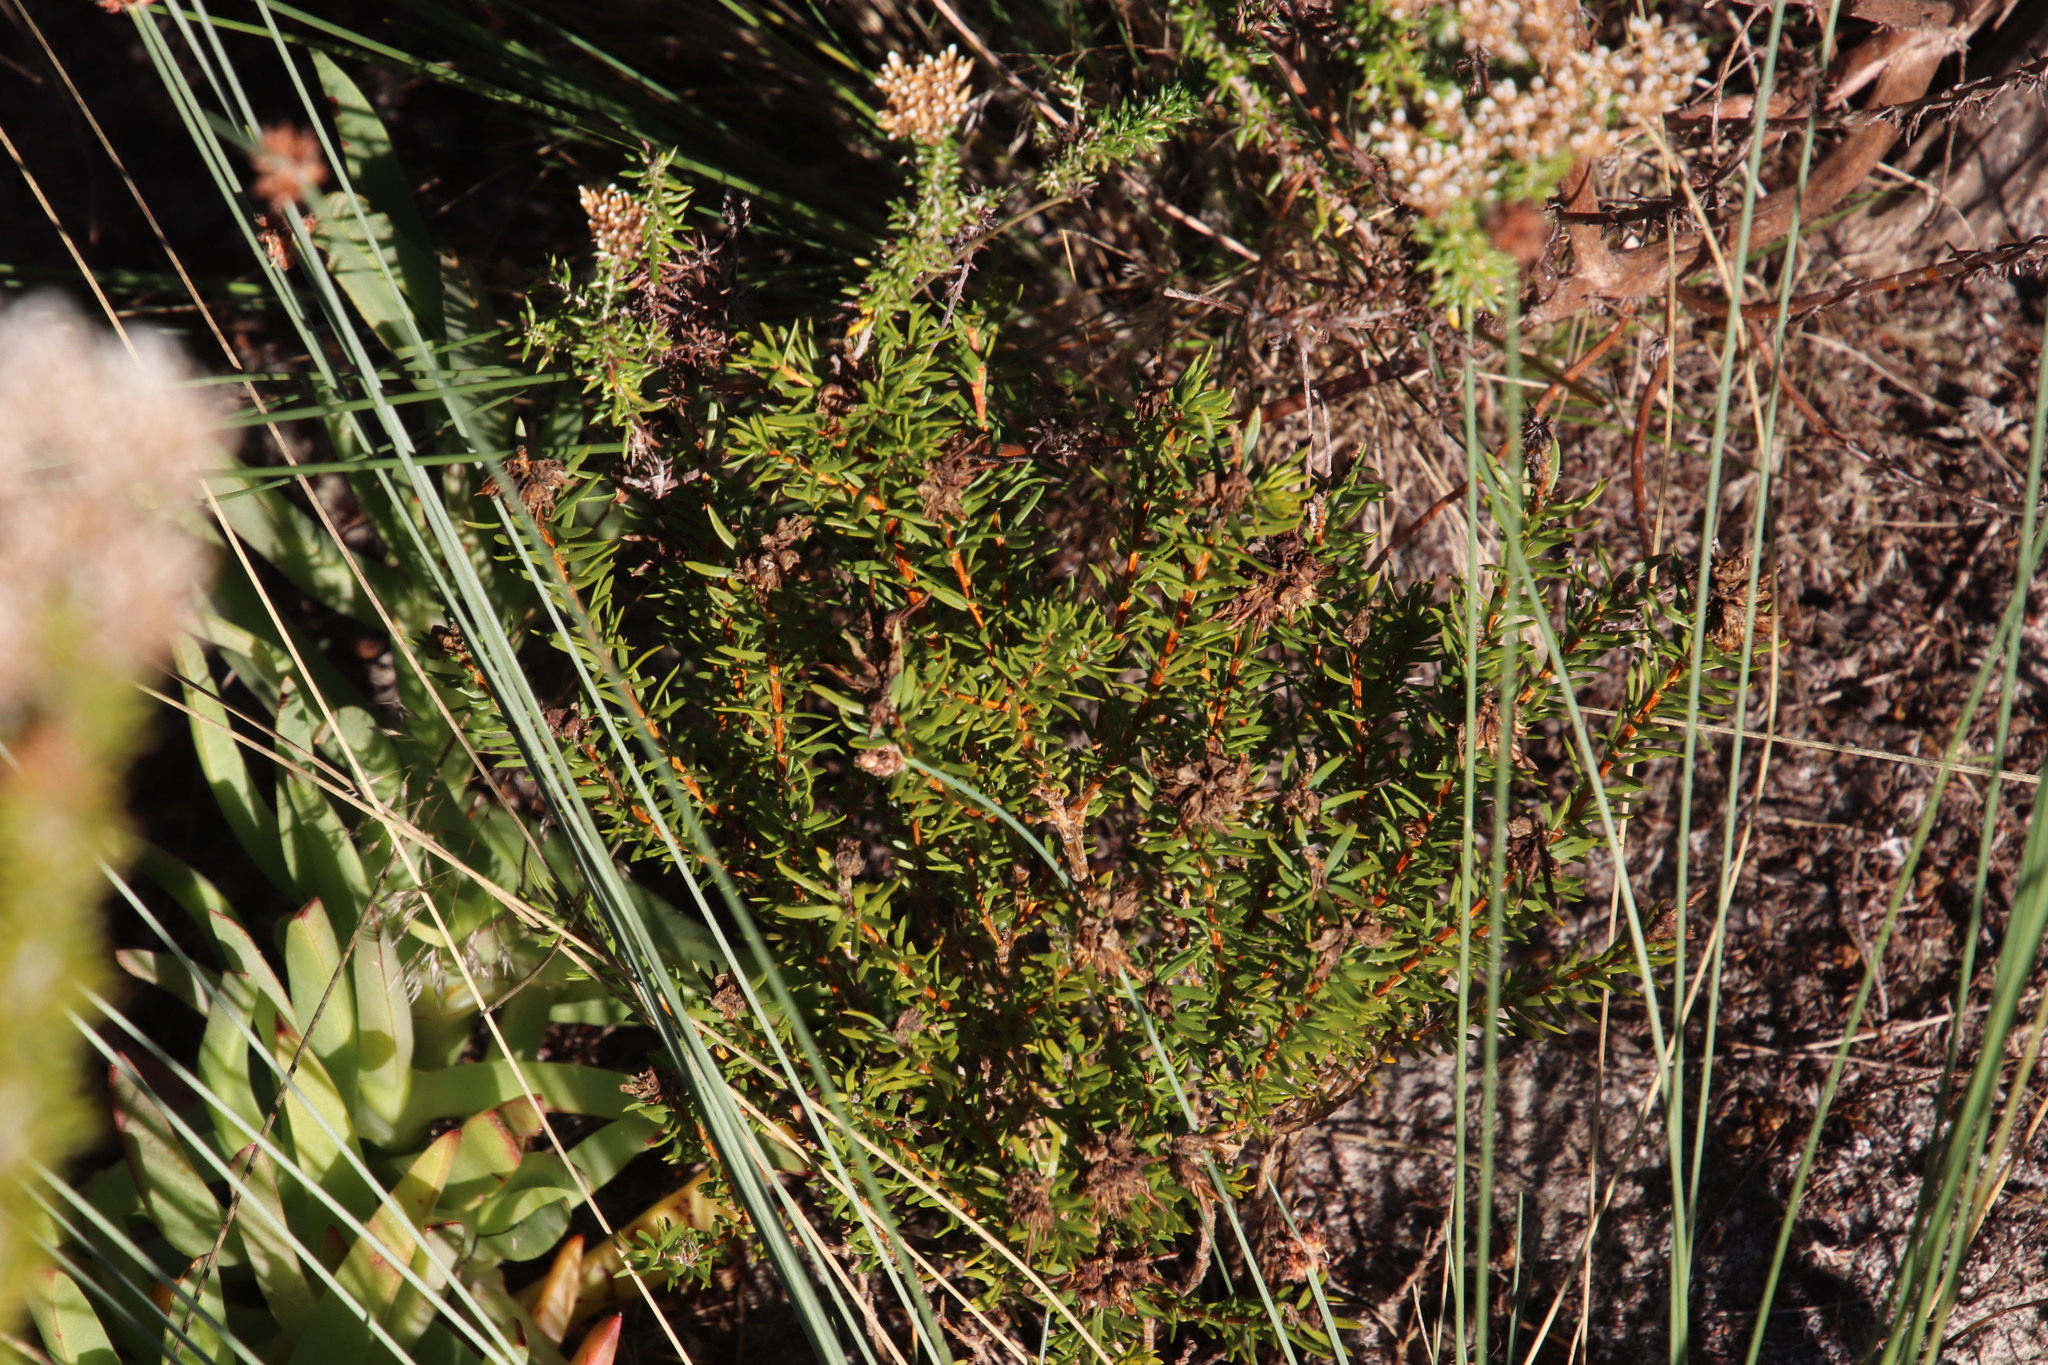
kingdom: Plantae
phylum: Tracheophyta
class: Magnoliopsida
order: Fabales
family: Fabaceae
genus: Aspalathus
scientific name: Aspalathus callosa
